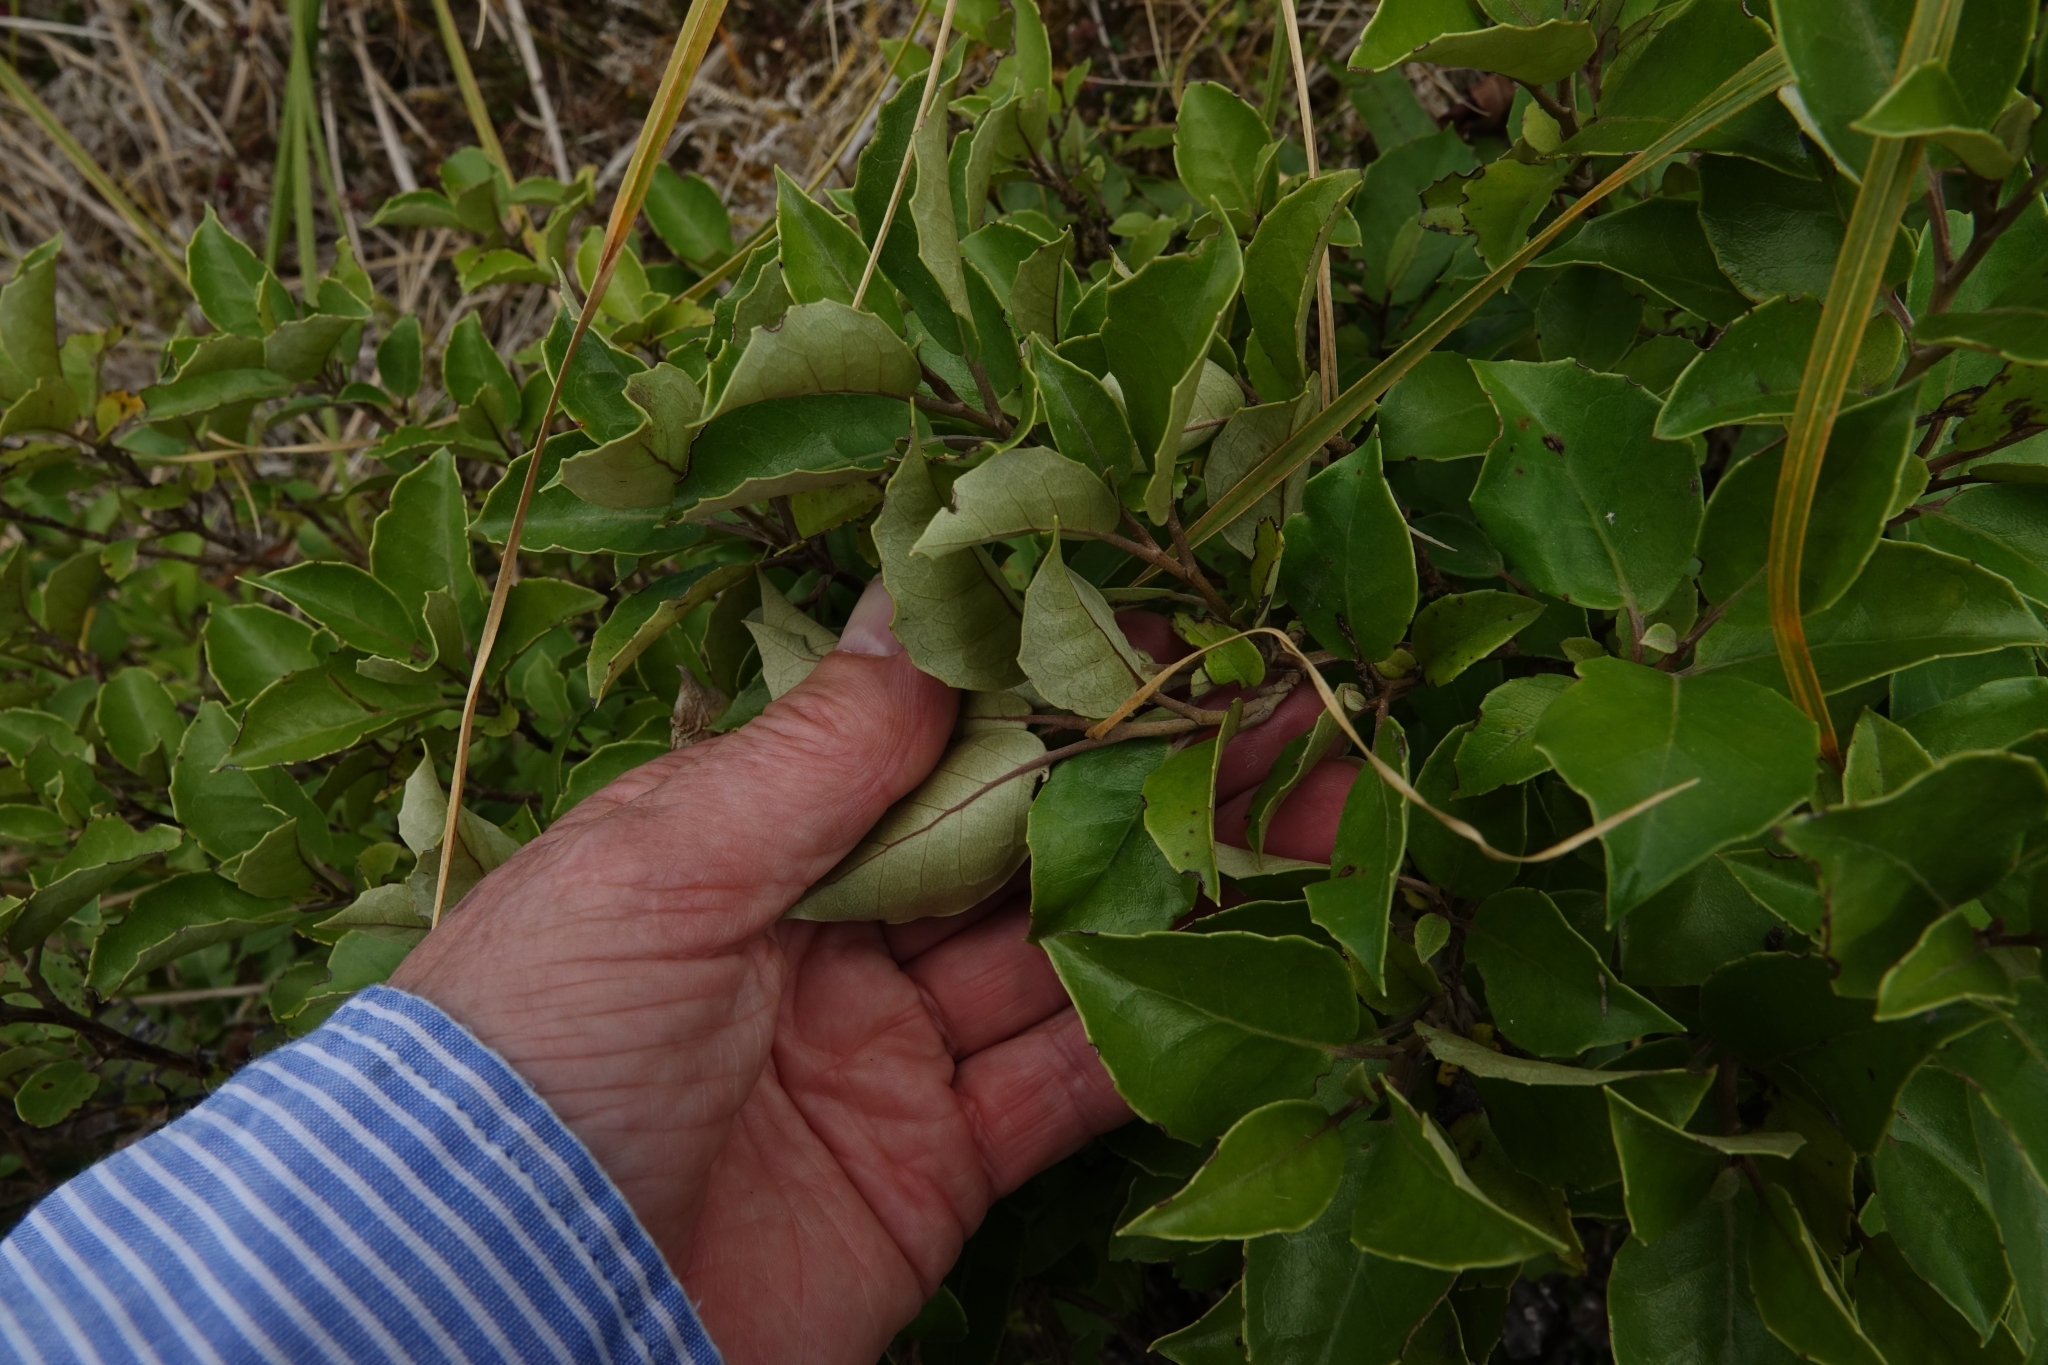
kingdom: Plantae
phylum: Tracheophyta
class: Magnoliopsida
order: Asterales
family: Asteraceae
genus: Olearia
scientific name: Olearia arborescens
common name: Glossy tree daisy
